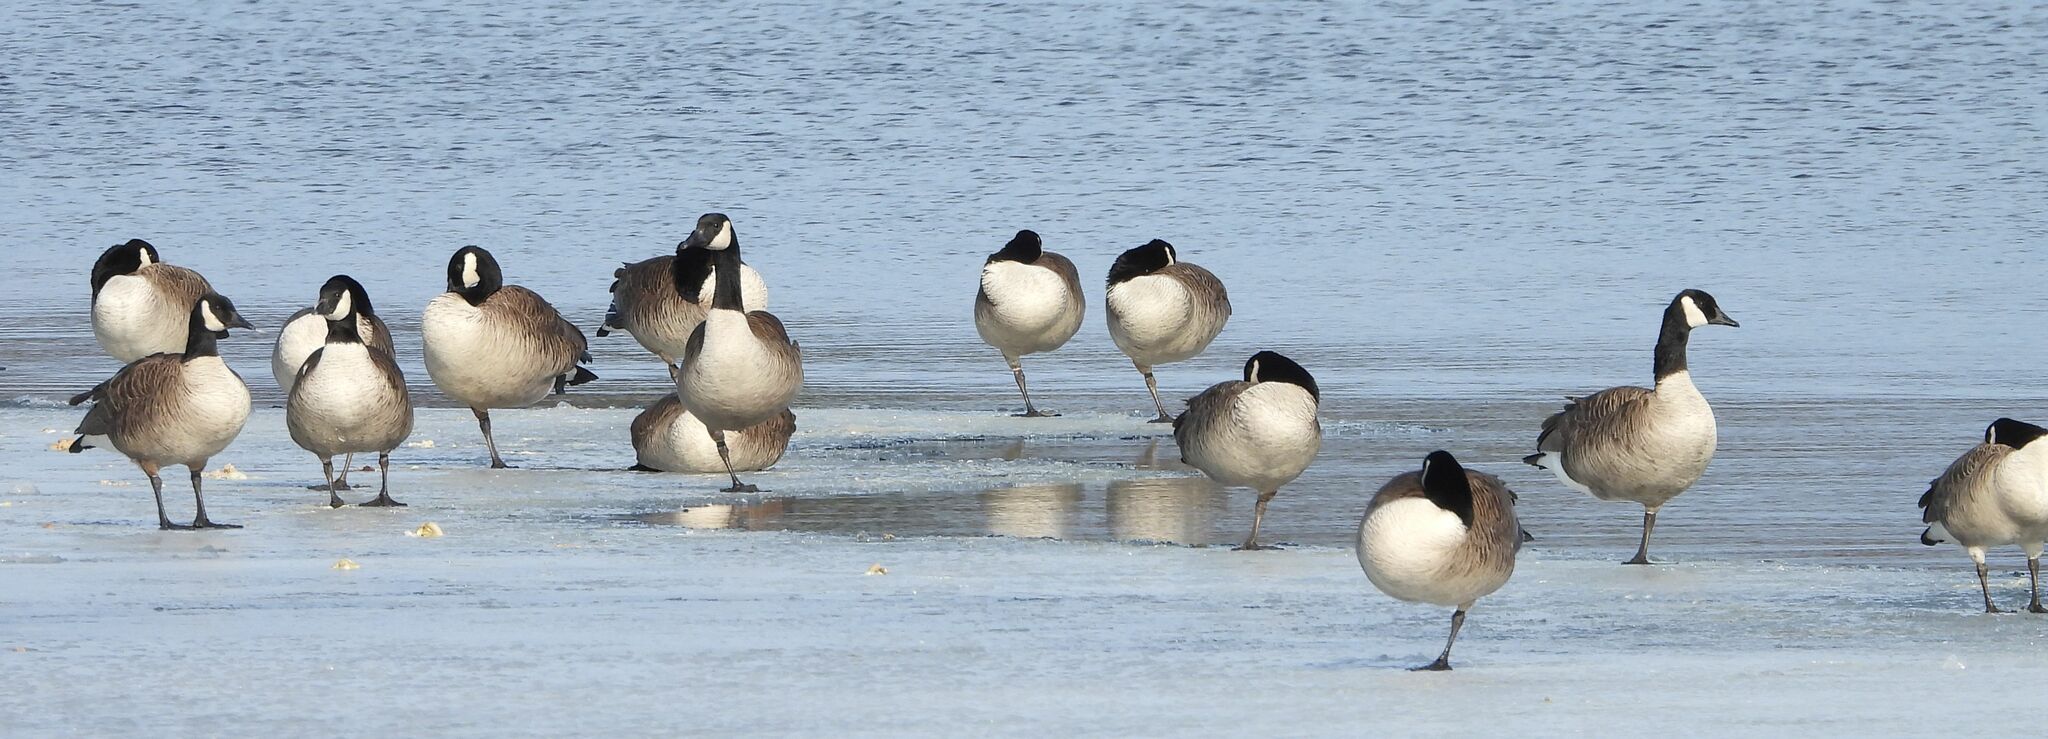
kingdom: Animalia
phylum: Chordata
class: Aves
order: Anseriformes
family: Anatidae
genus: Branta
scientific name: Branta canadensis
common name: Canada goose
